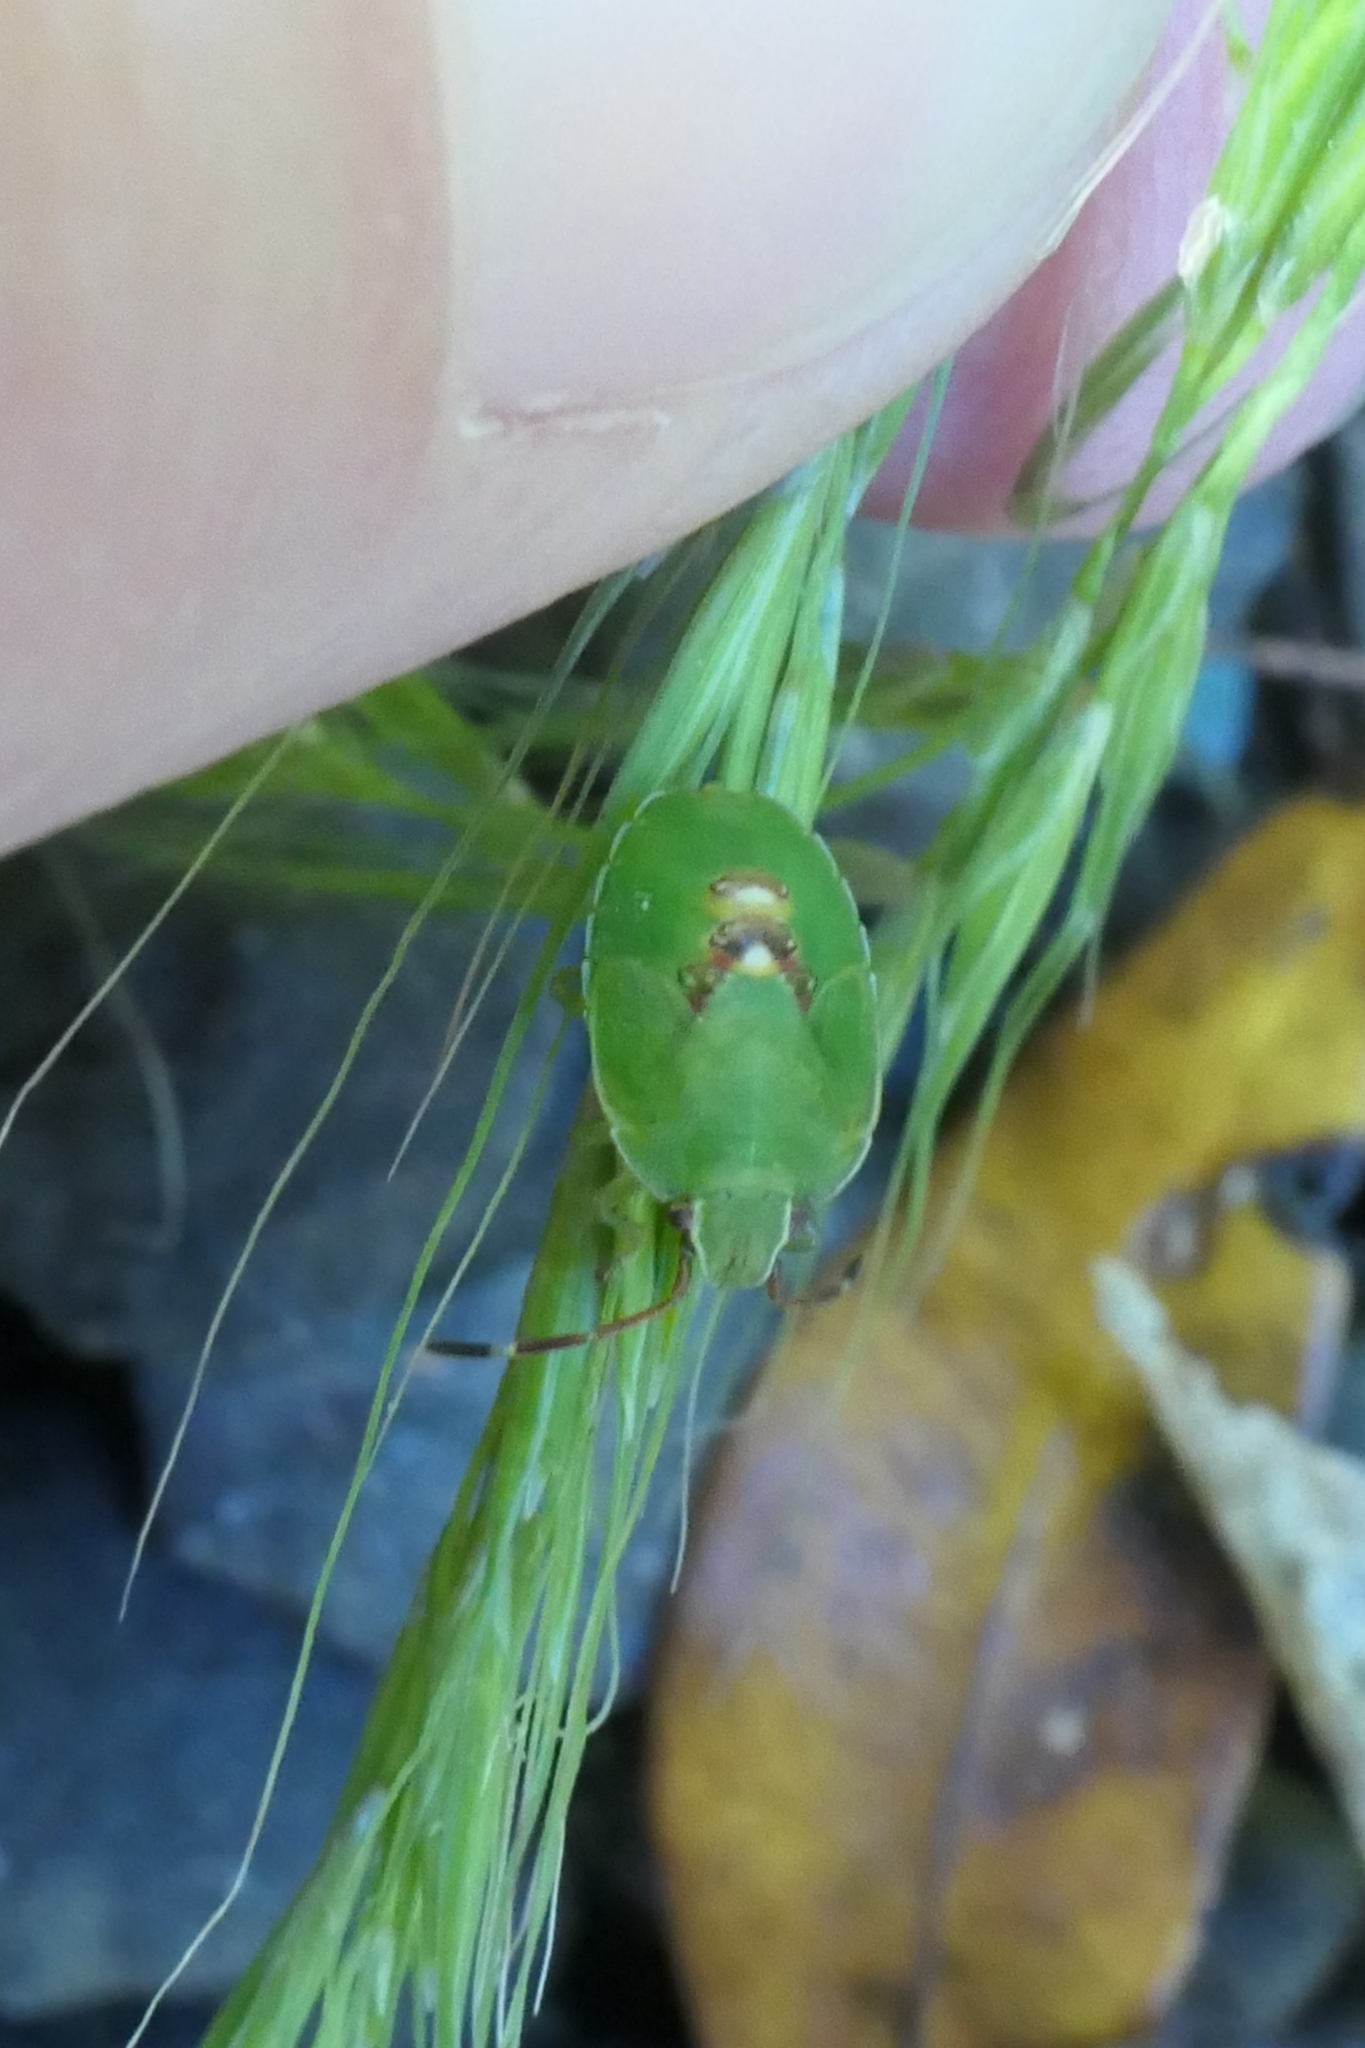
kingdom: Animalia
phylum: Arthropoda
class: Insecta
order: Hemiptera
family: Acanthosomatidae
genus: Oncacontias
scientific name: Oncacontias vittatus
